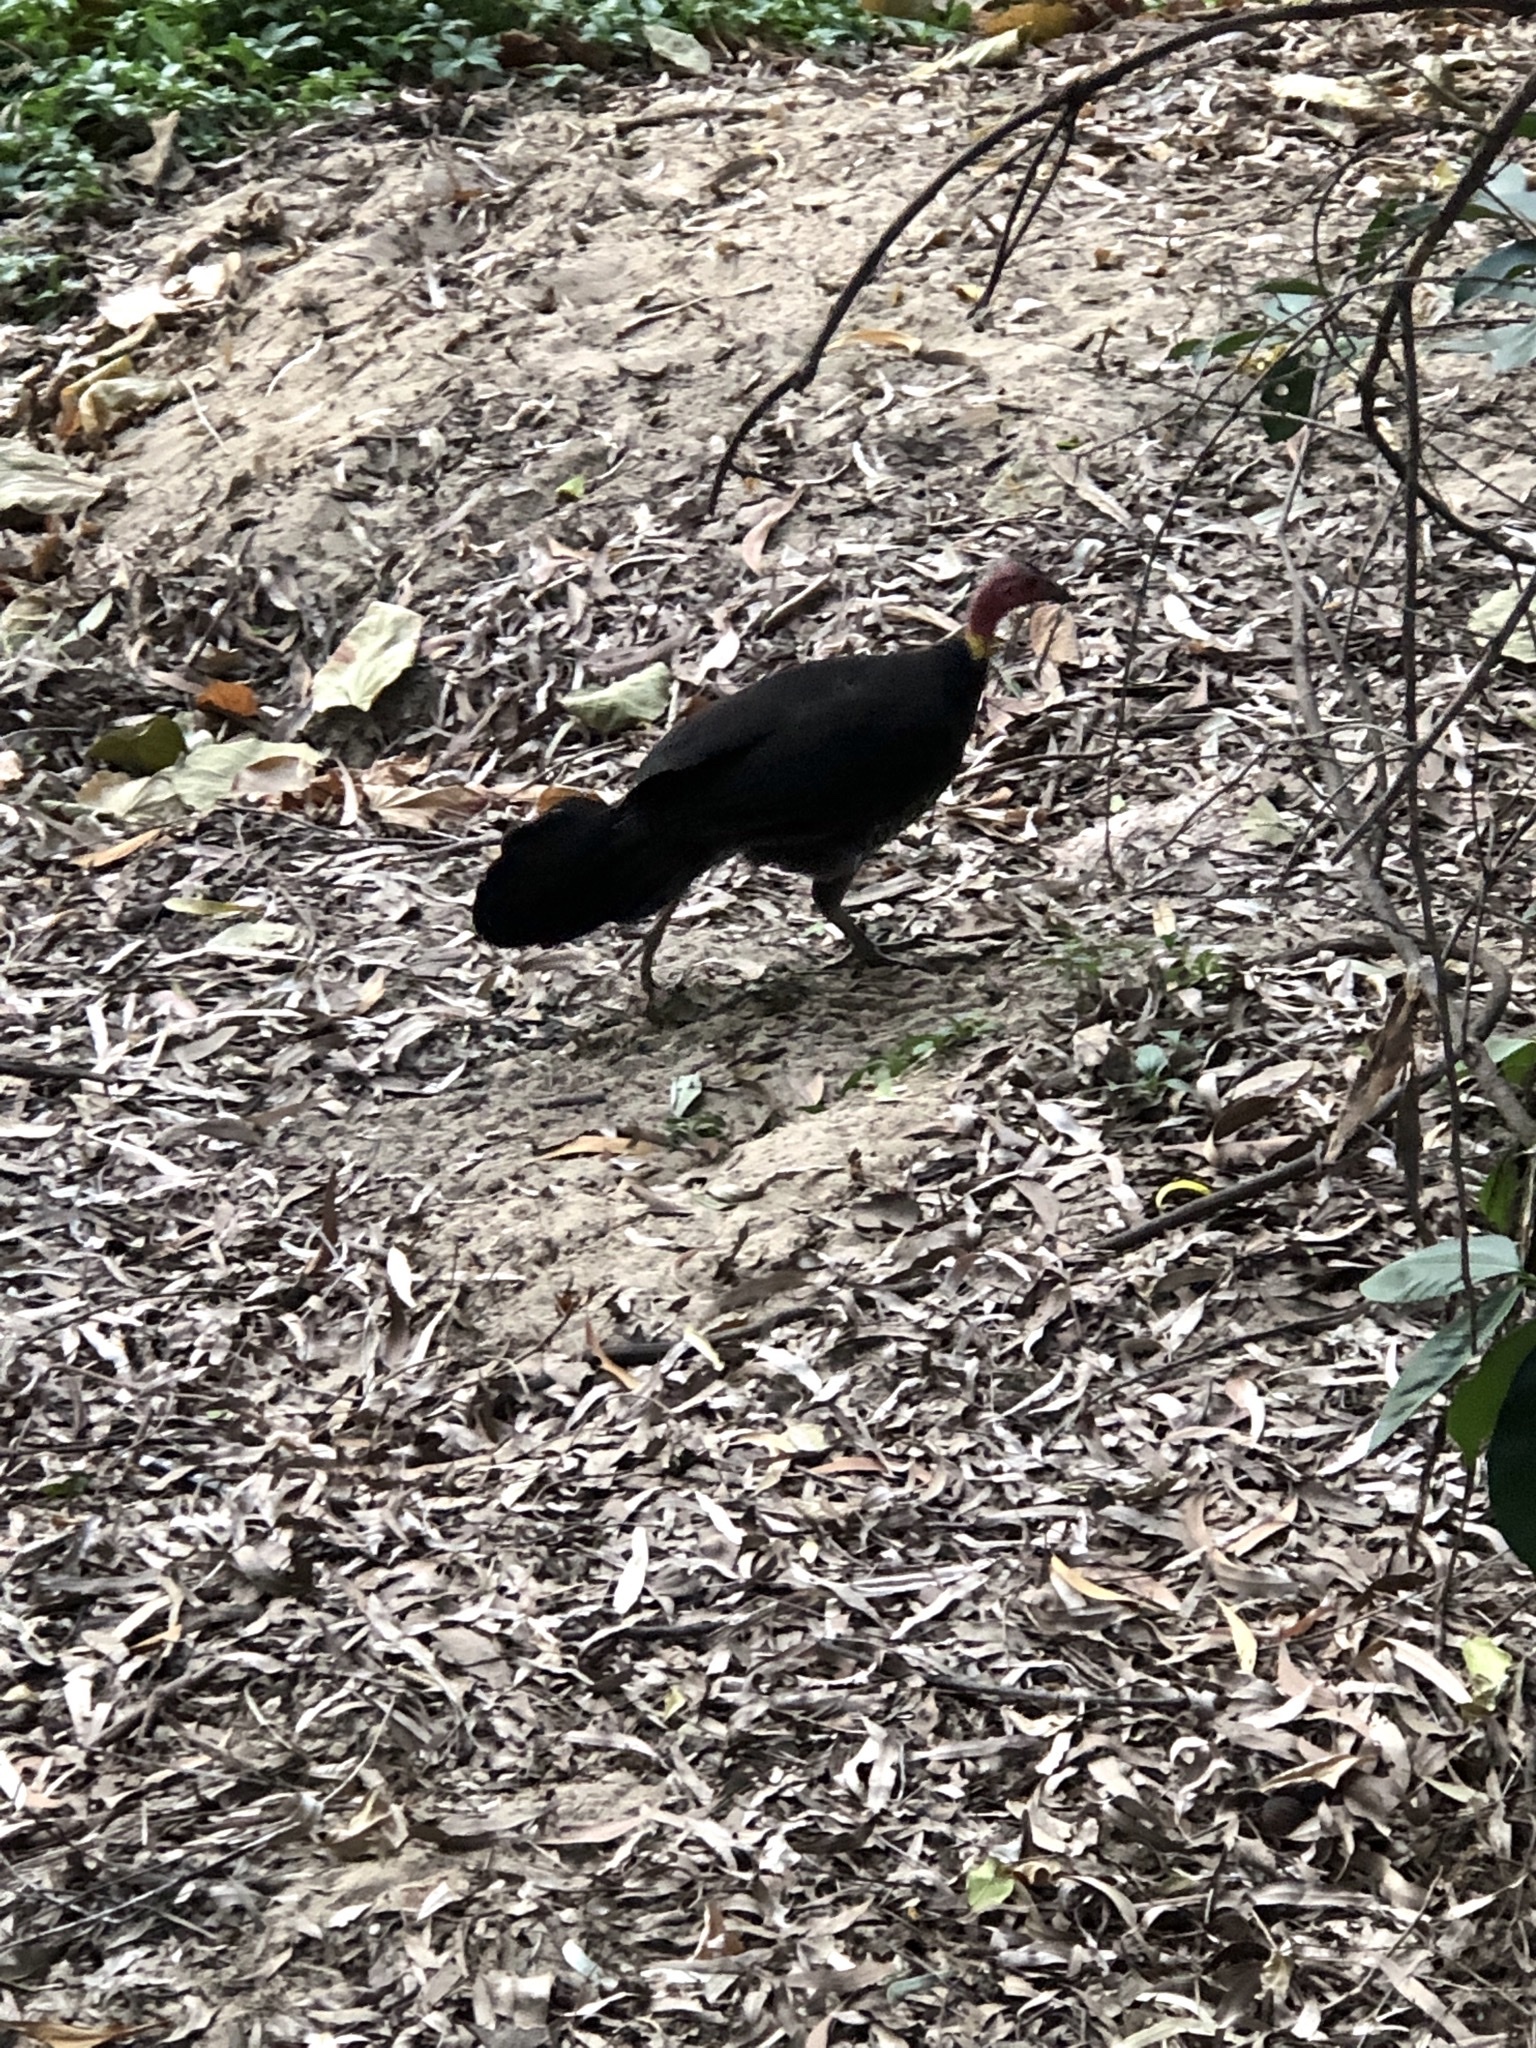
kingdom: Animalia
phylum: Chordata
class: Aves
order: Galliformes
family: Megapodiidae
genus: Alectura
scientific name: Alectura lathami
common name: Australian brushturkey
